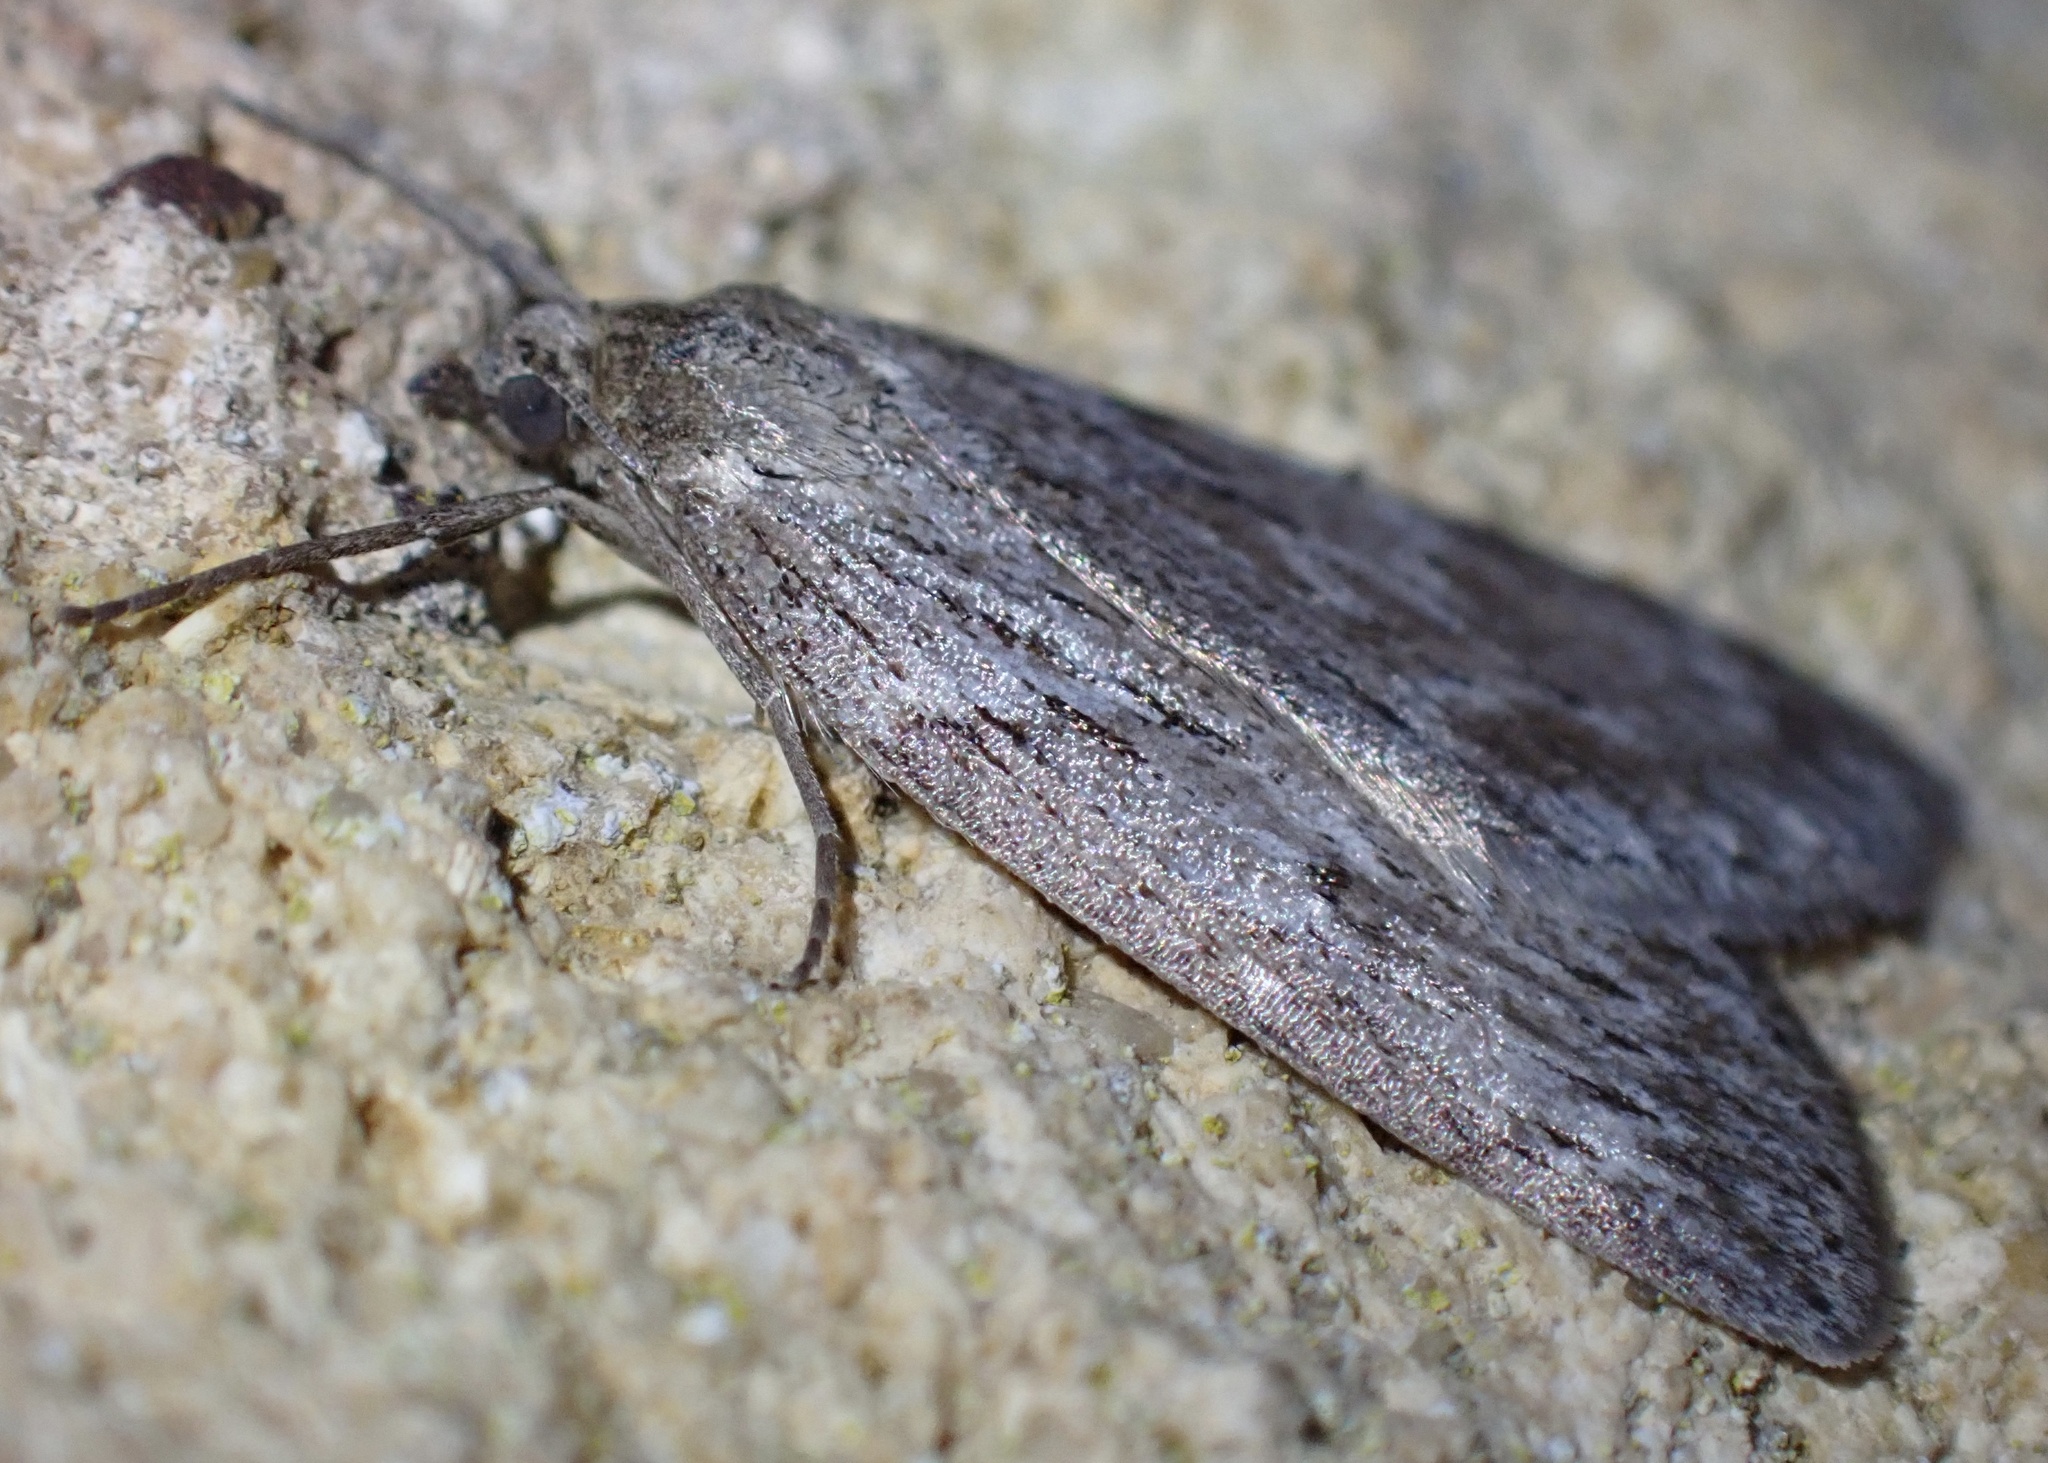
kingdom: Animalia
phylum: Arthropoda
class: Insecta
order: Lepidoptera
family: Geometridae
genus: Pachycnemia
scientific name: Pachycnemia hippocastanaria
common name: Horse chestnut
